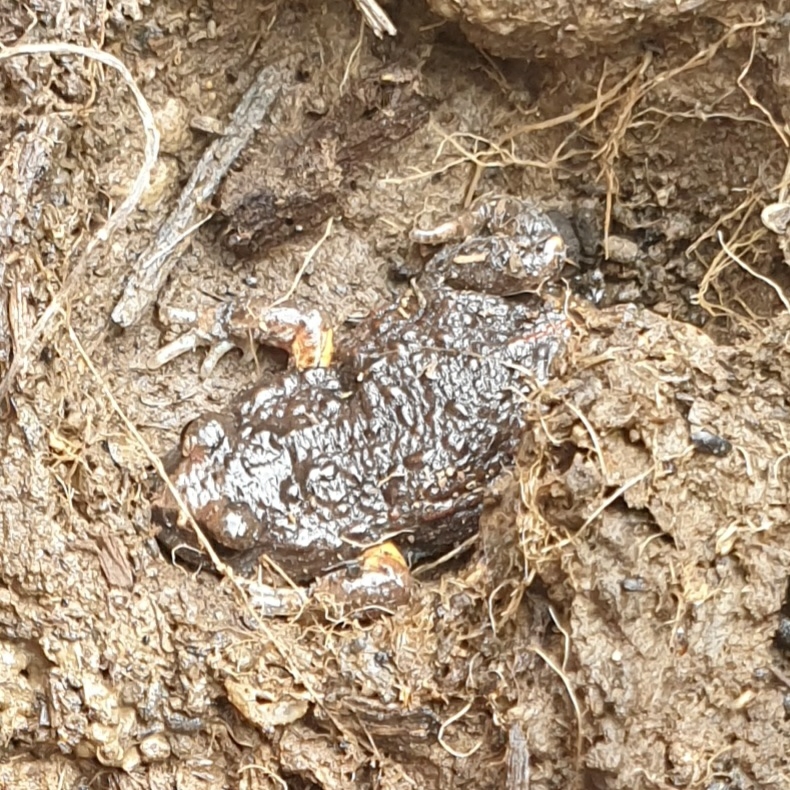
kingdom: Animalia
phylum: Chordata
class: Amphibia
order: Anura
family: Myobatrachidae
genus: Pseudophryne
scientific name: Pseudophryne bibronii
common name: Bibron’s toadlet
